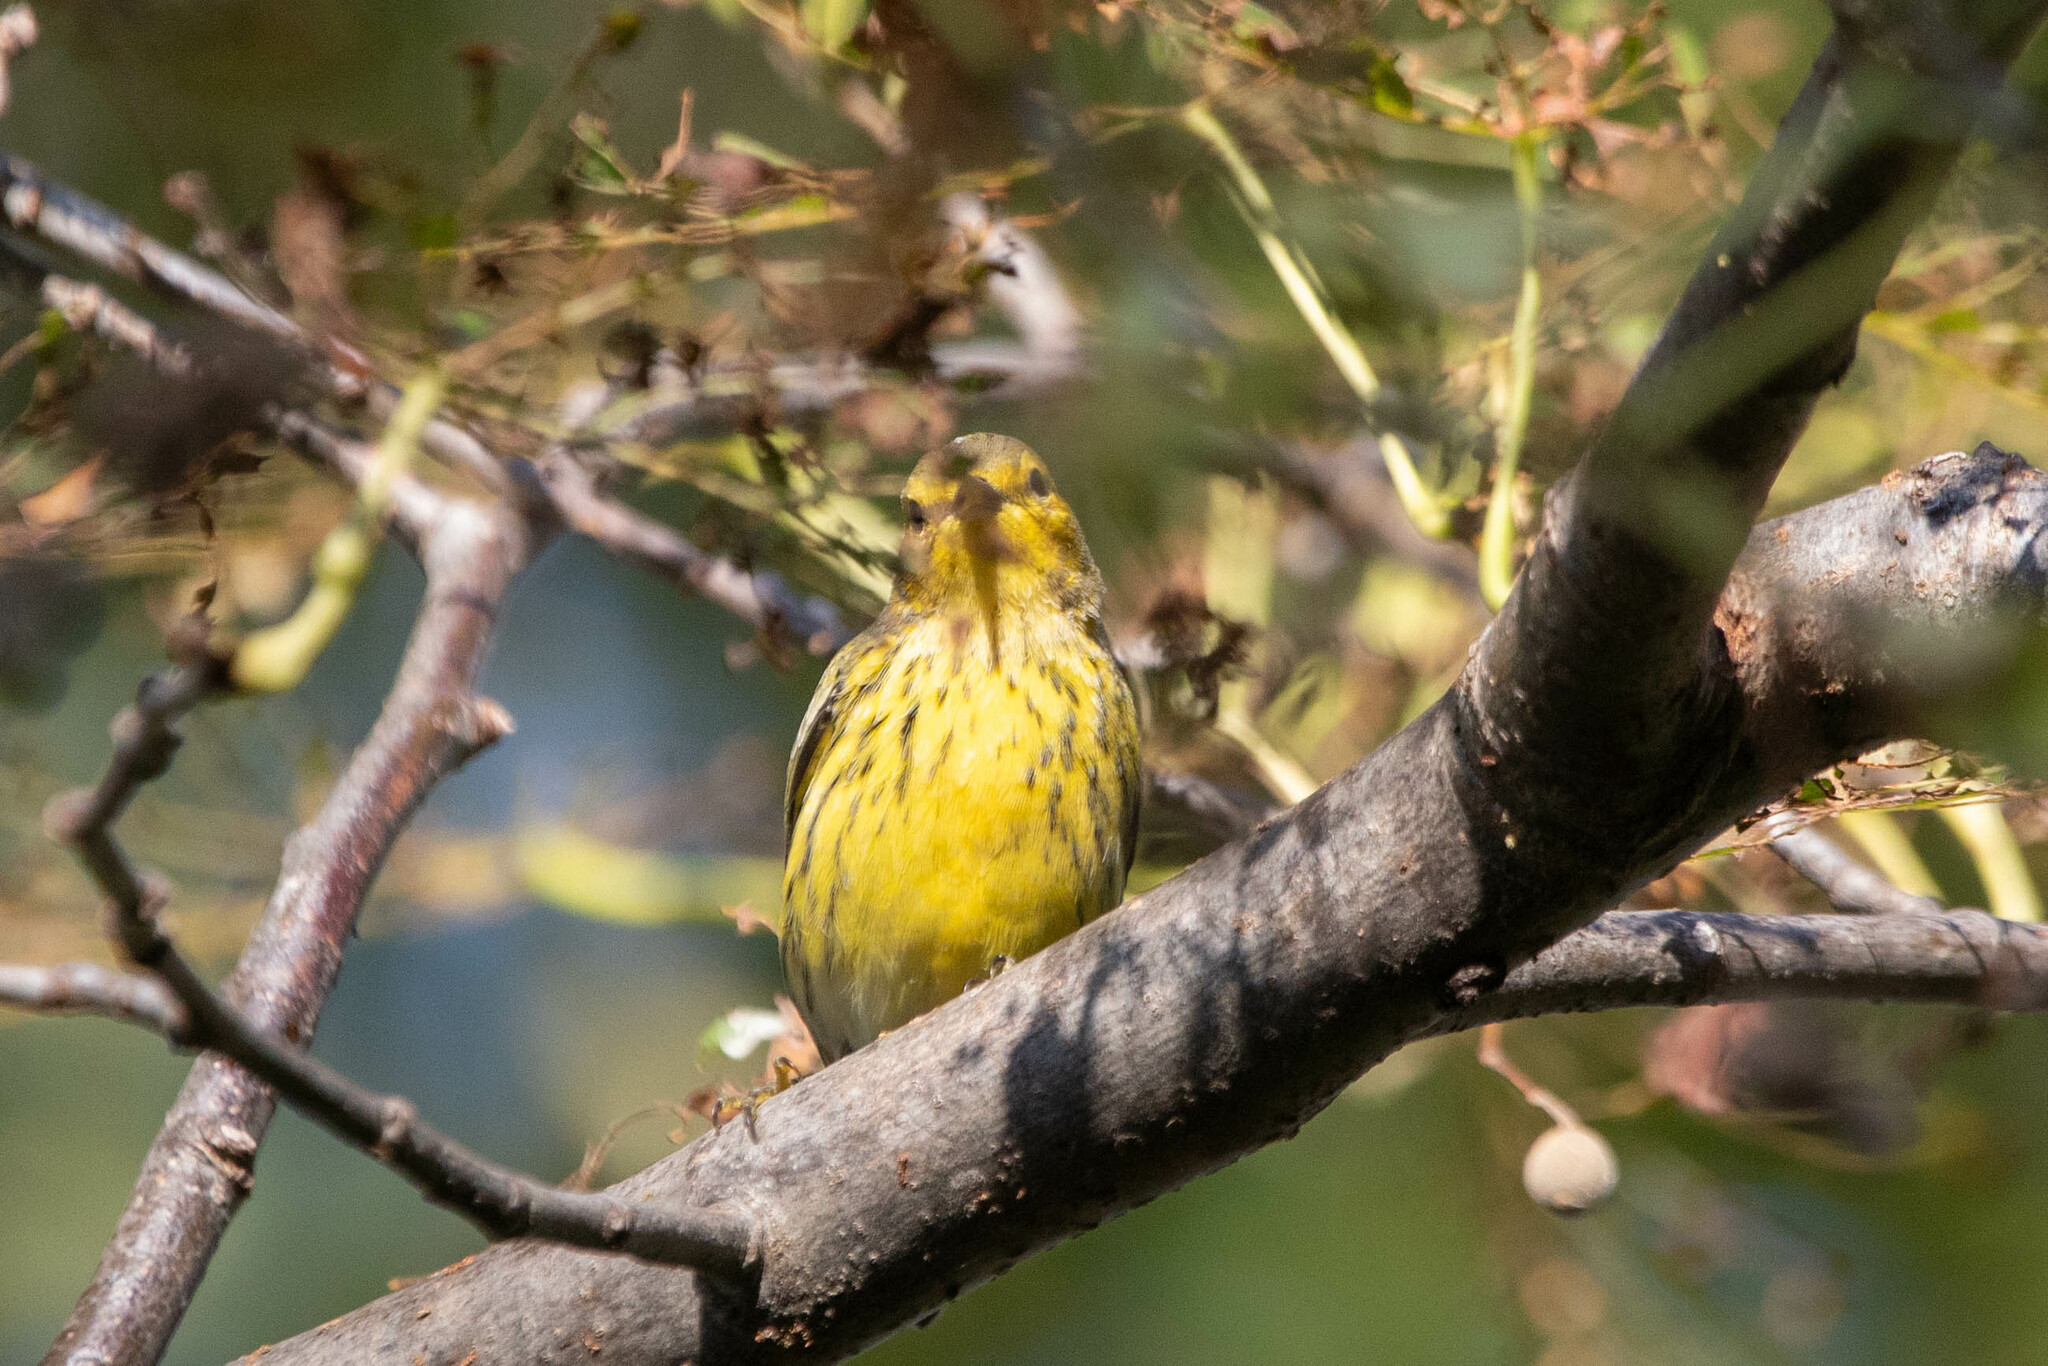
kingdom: Animalia
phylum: Chordata
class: Aves
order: Passeriformes
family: Parulidae
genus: Setophaga
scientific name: Setophaga tigrina
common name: Cape may warbler
